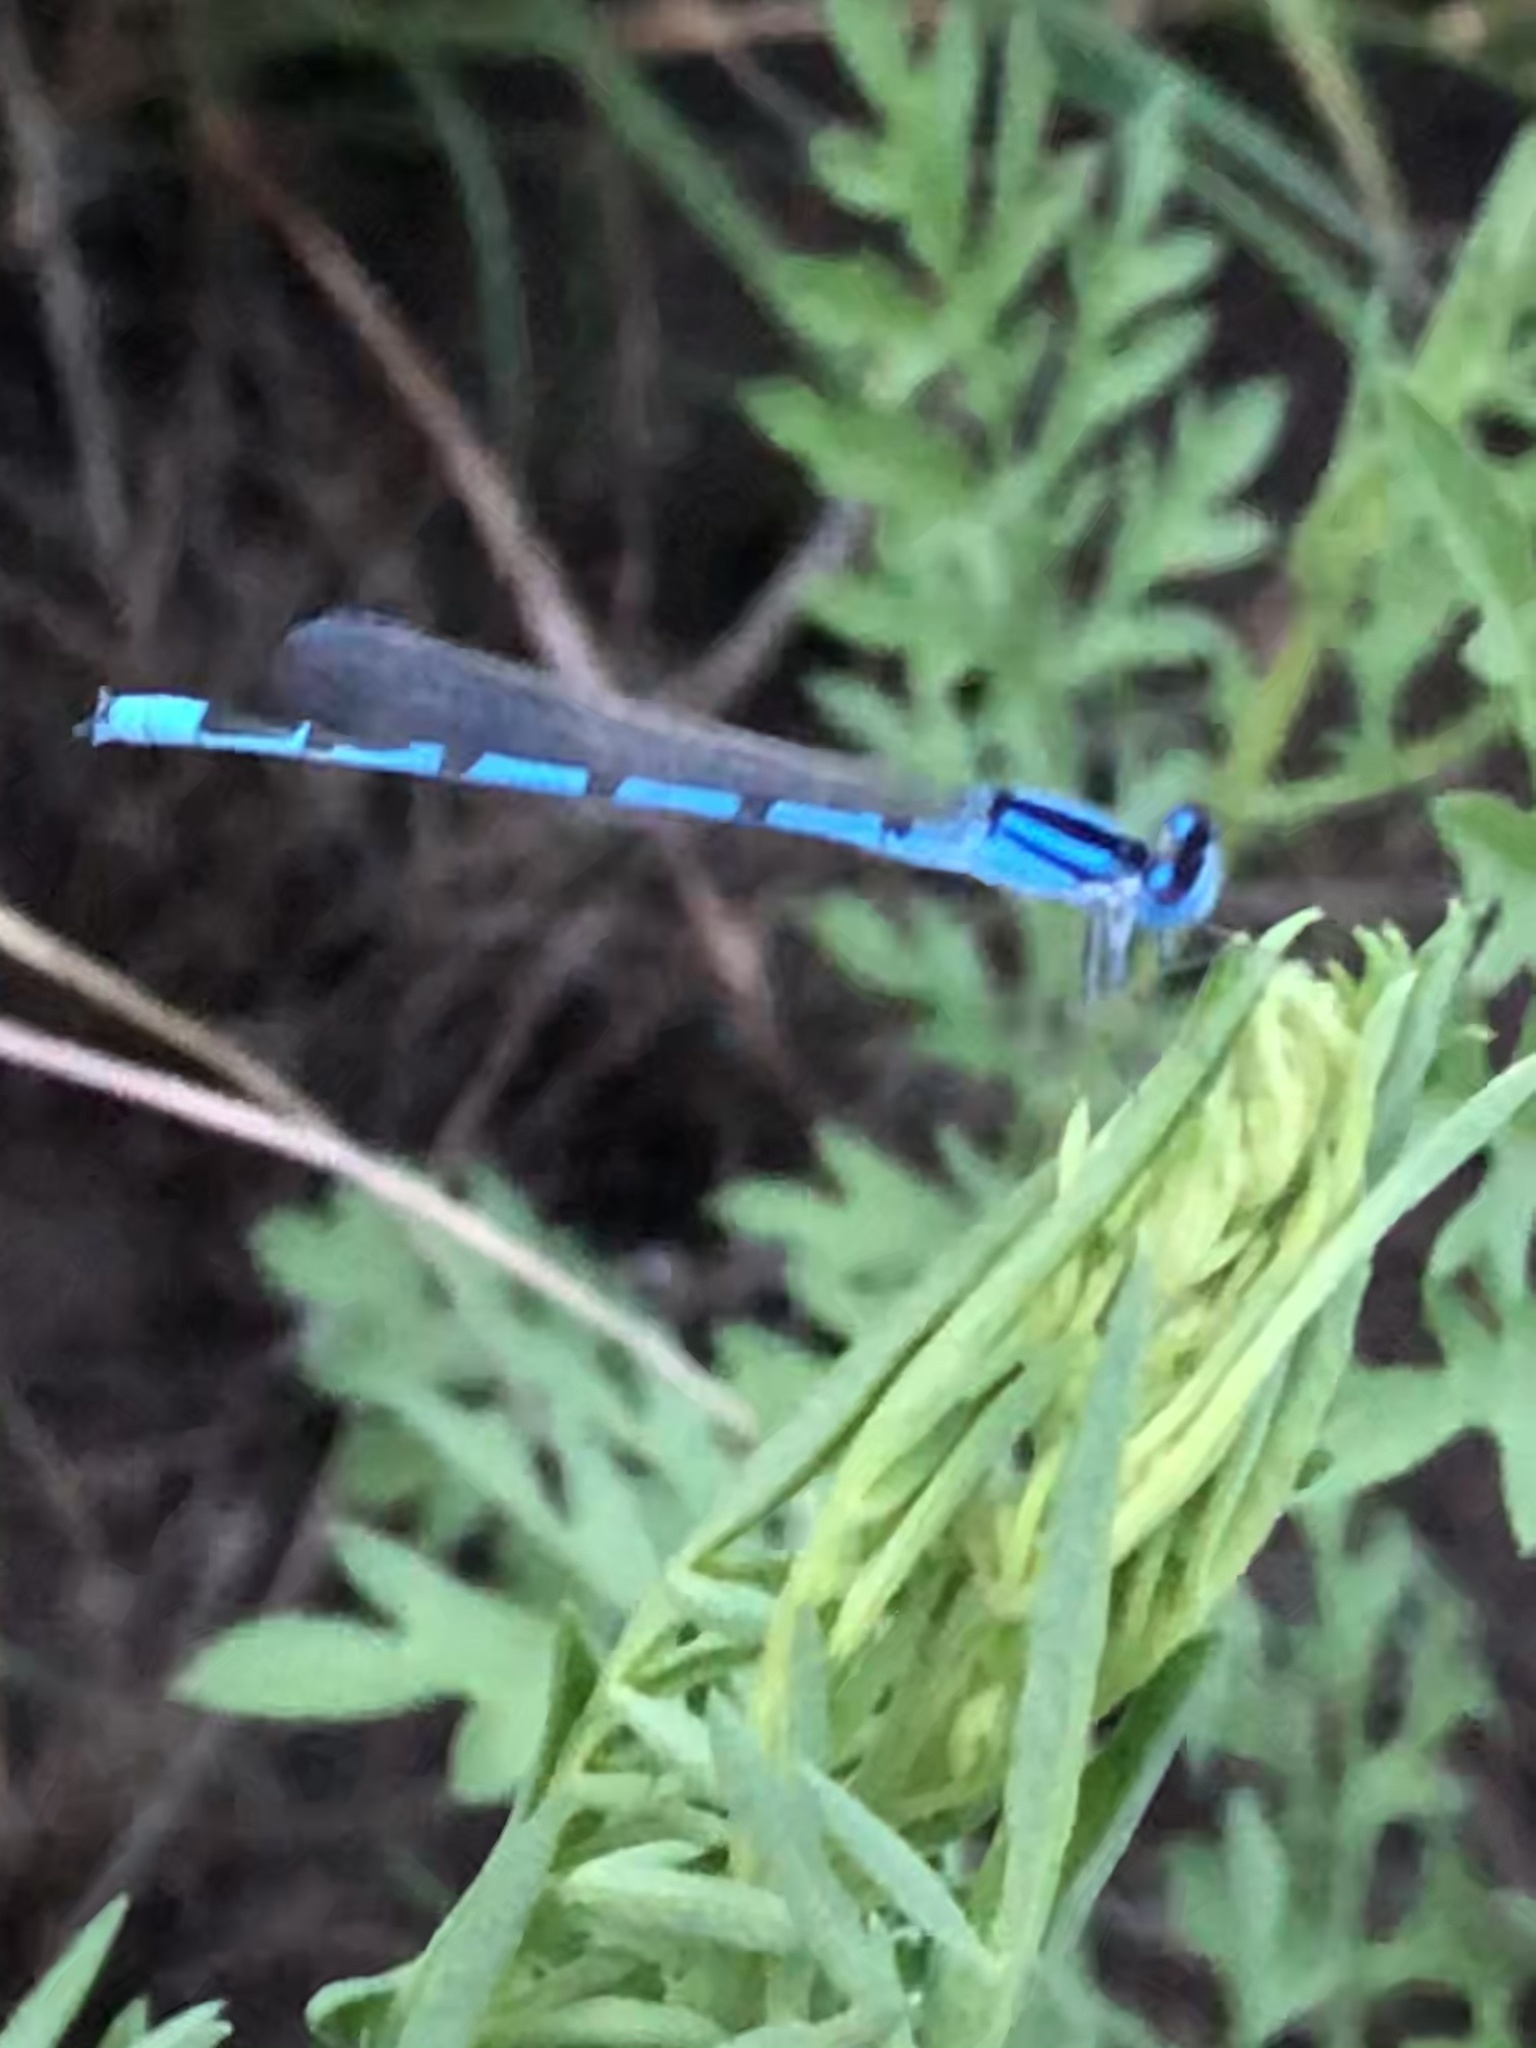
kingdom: Animalia
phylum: Arthropoda
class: Insecta
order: Odonata
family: Coenagrionidae
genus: Enallagma
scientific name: Enallagma civile
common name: Damselfly
